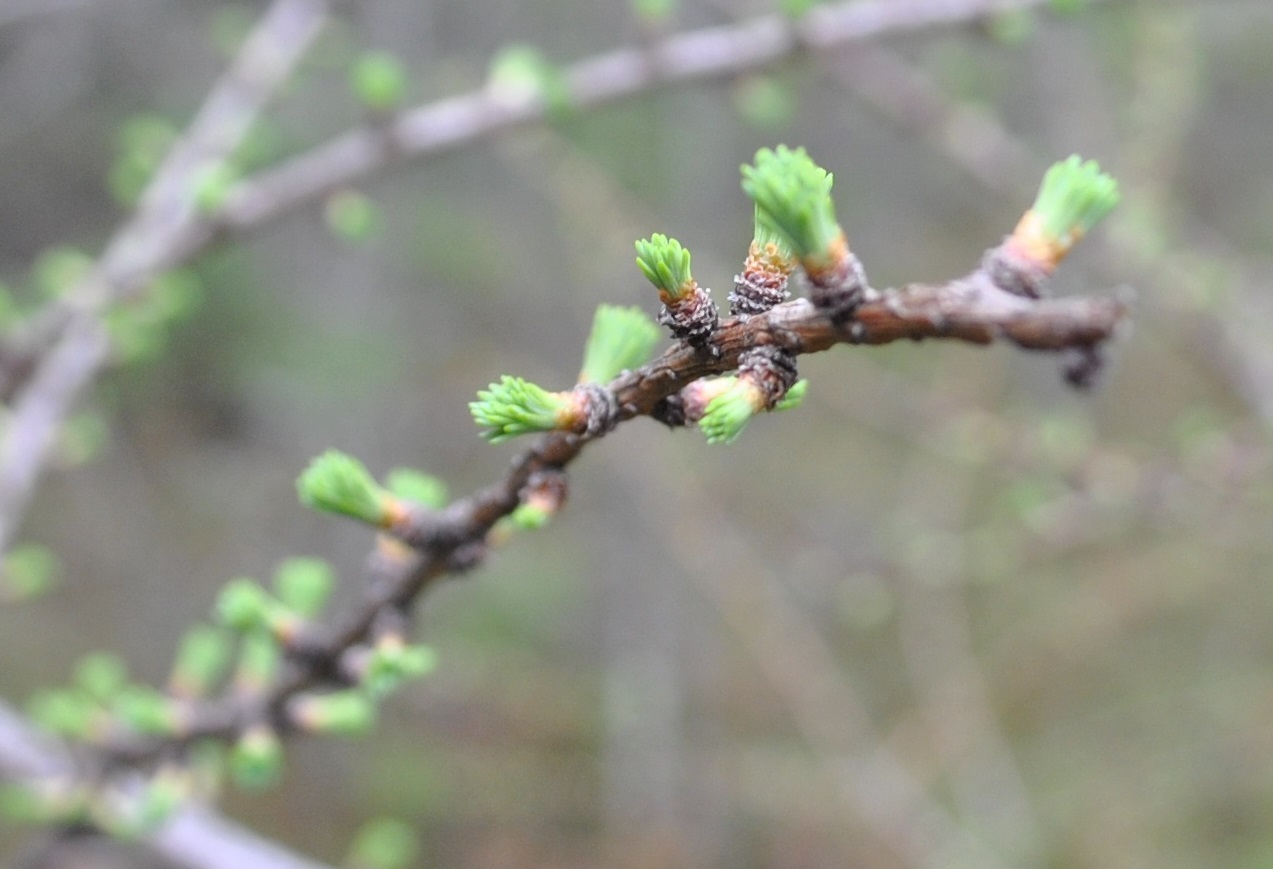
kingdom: Plantae
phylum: Tracheophyta
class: Pinopsida
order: Pinales
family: Pinaceae
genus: Larix
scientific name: Larix laricina
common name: American larch
